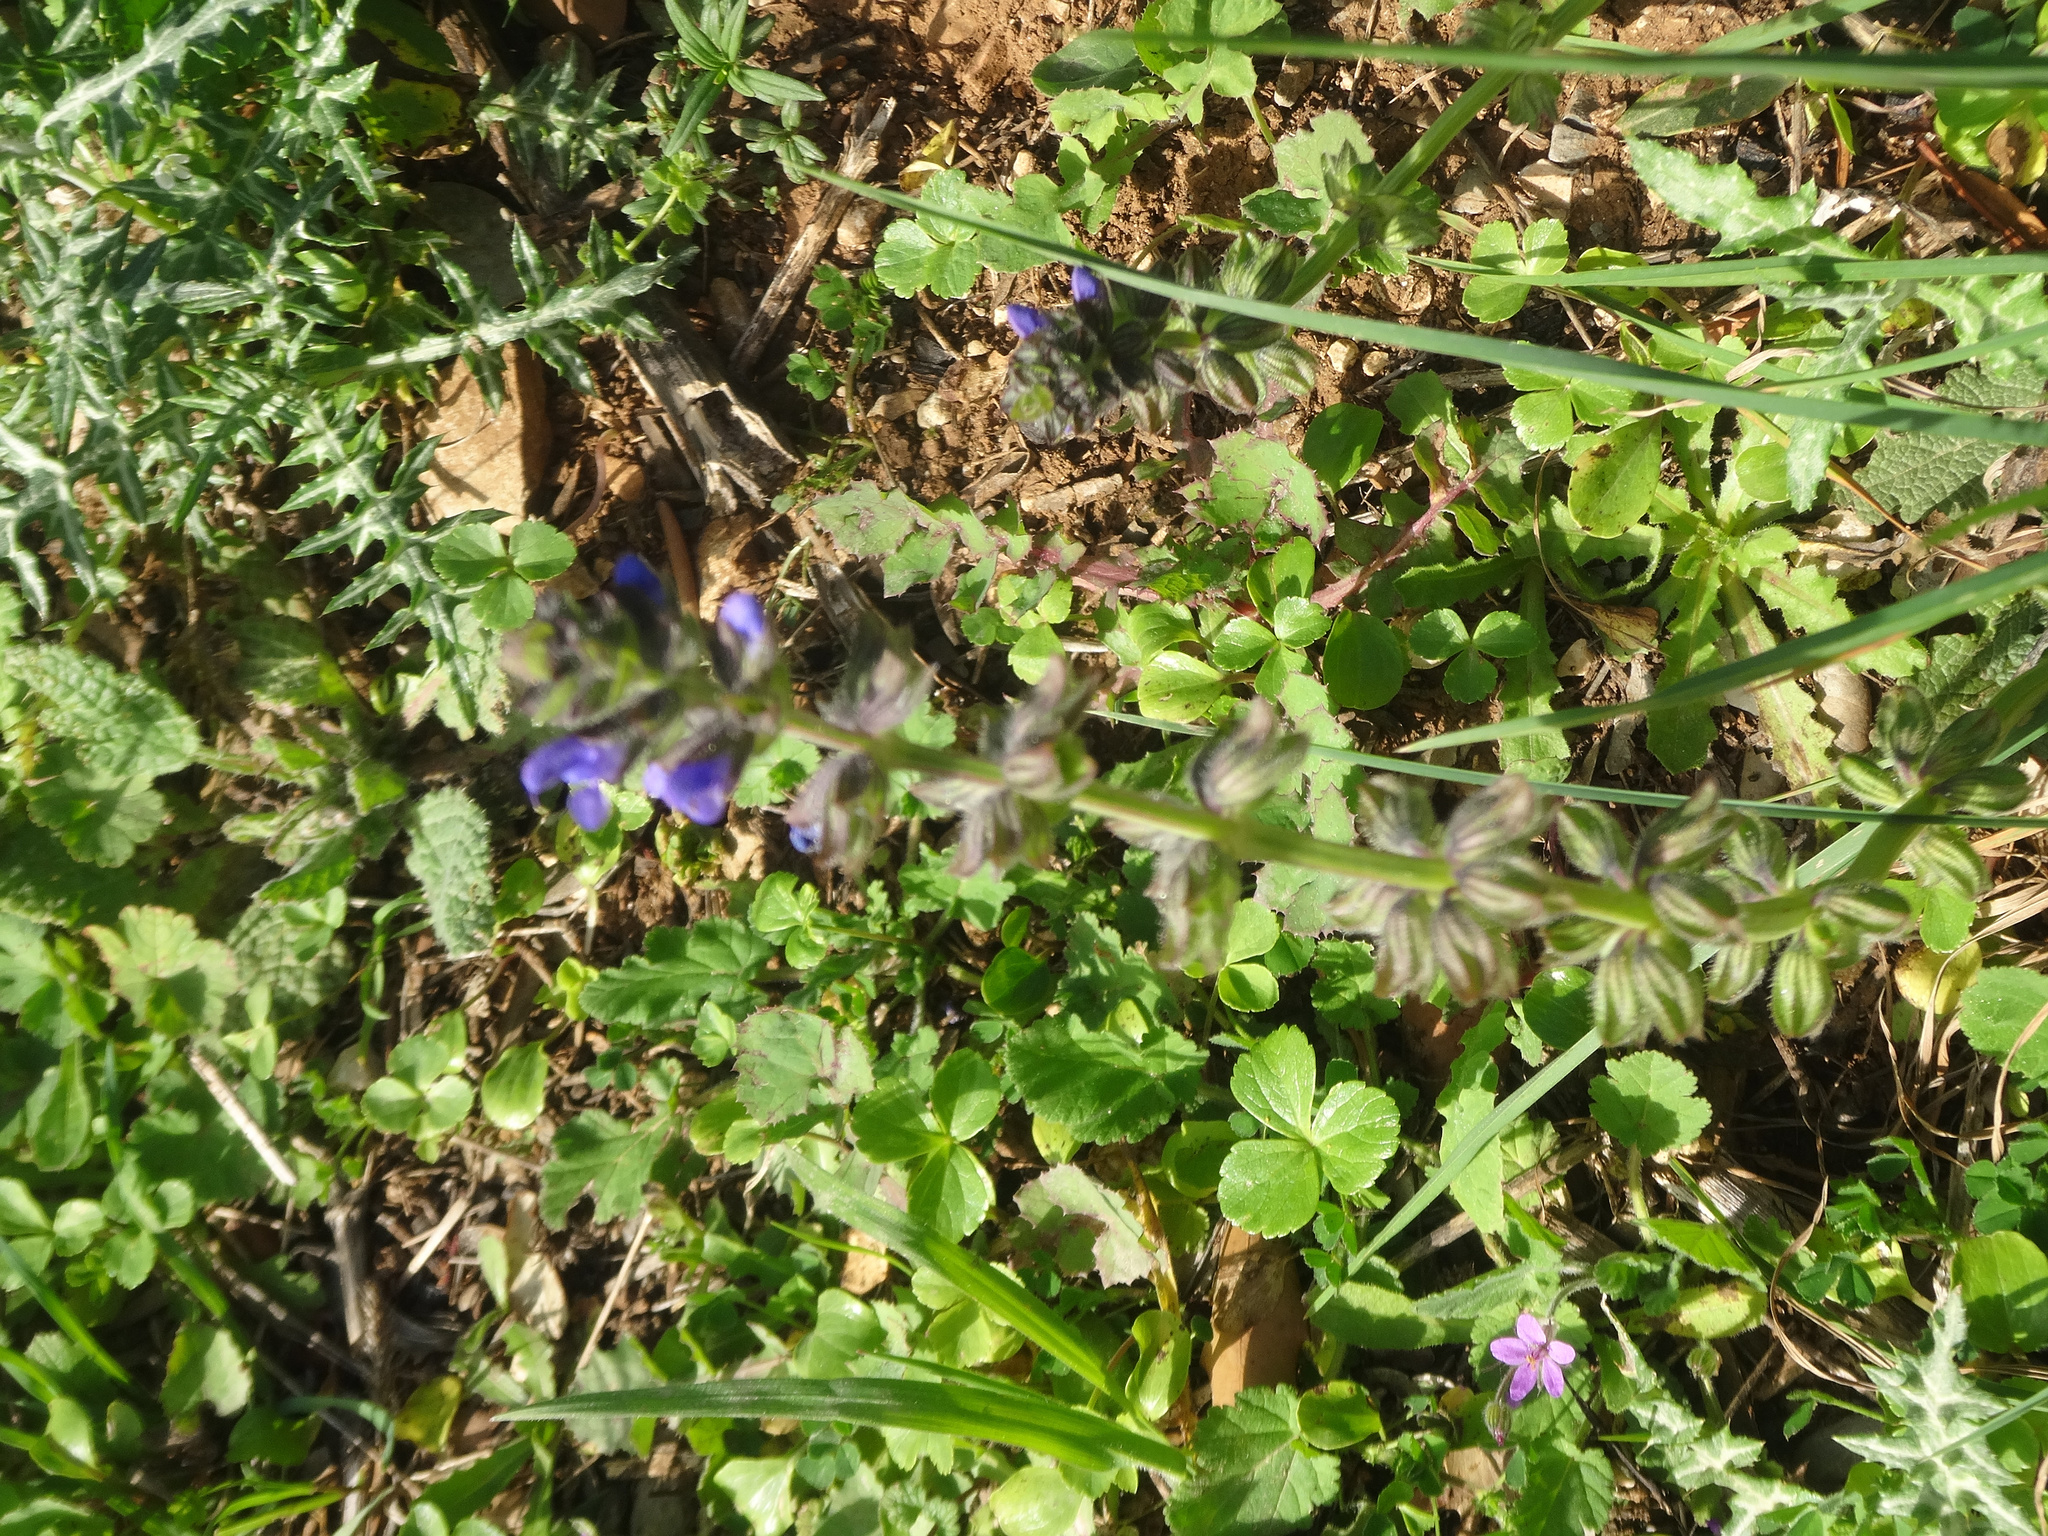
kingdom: Plantae
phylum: Tracheophyta
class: Magnoliopsida
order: Lamiales
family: Lamiaceae
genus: Salvia
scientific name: Salvia verbenaca
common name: Wild clary
